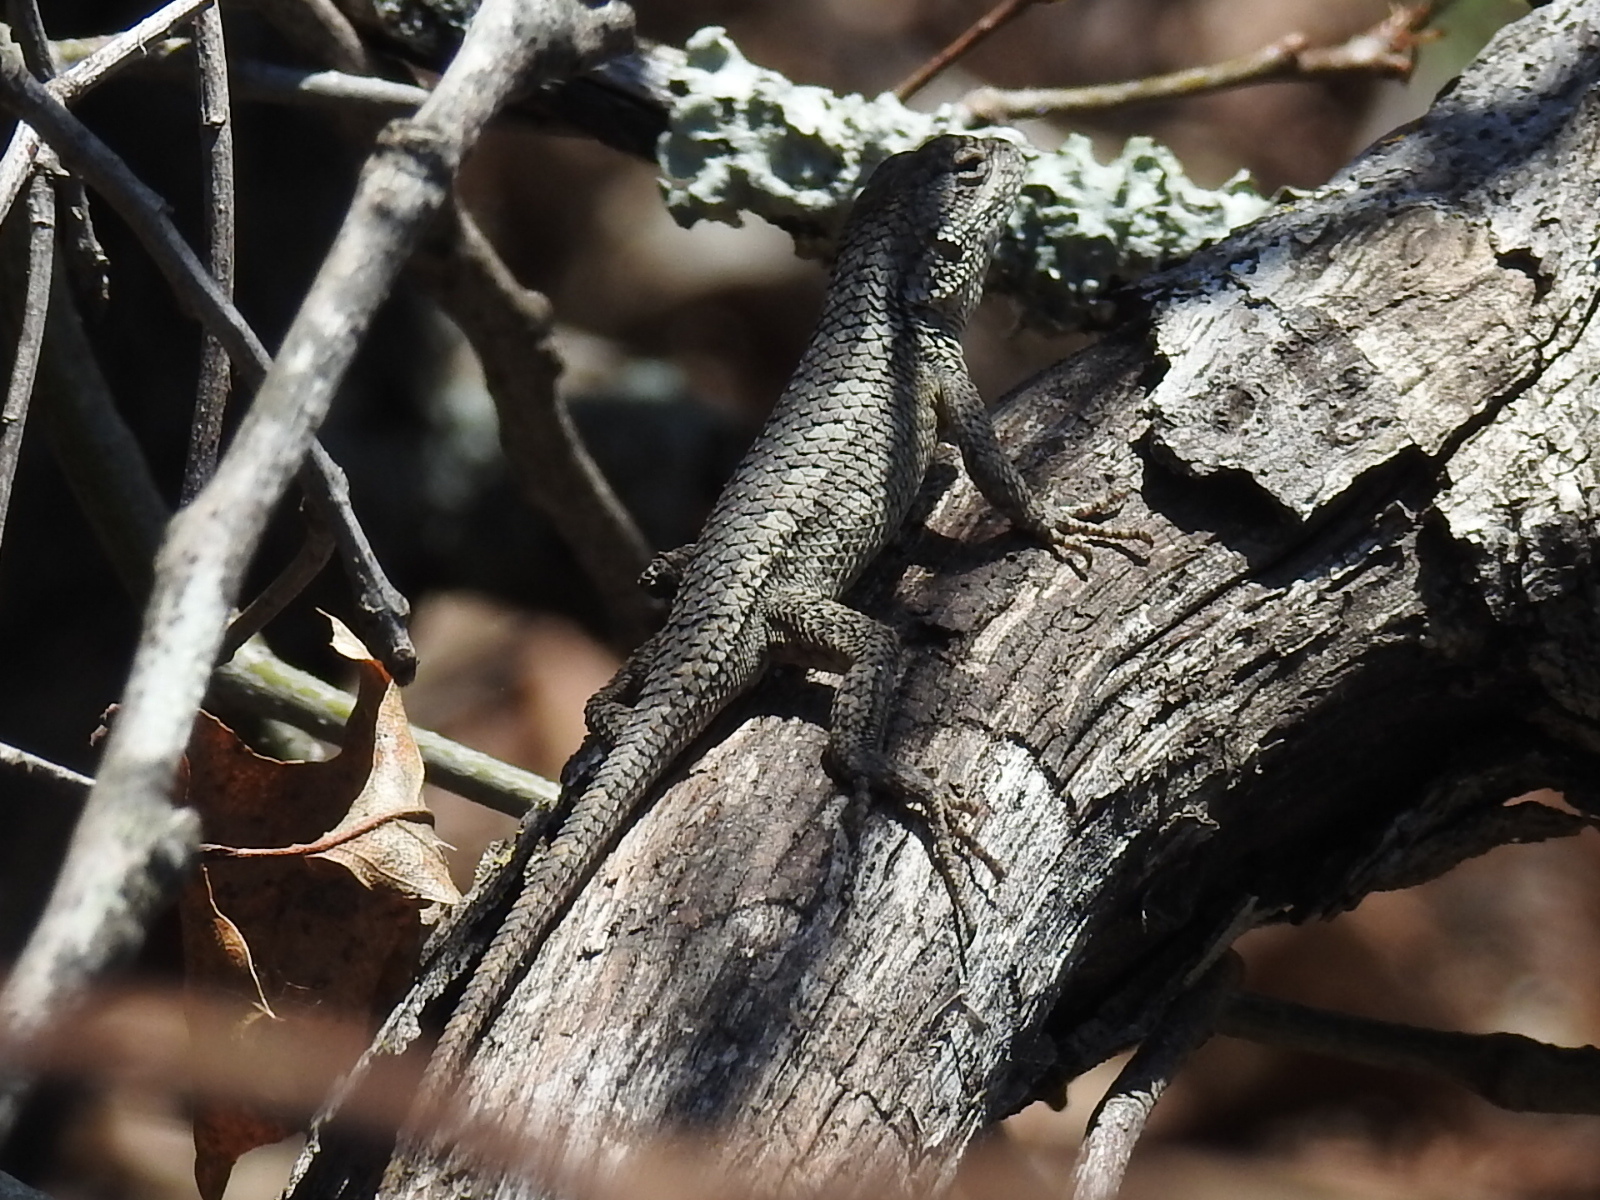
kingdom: Animalia
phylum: Chordata
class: Squamata
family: Phrynosomatidae
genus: Sceloporus
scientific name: Sceloporus olivaceus
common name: Texas spiny lizard
